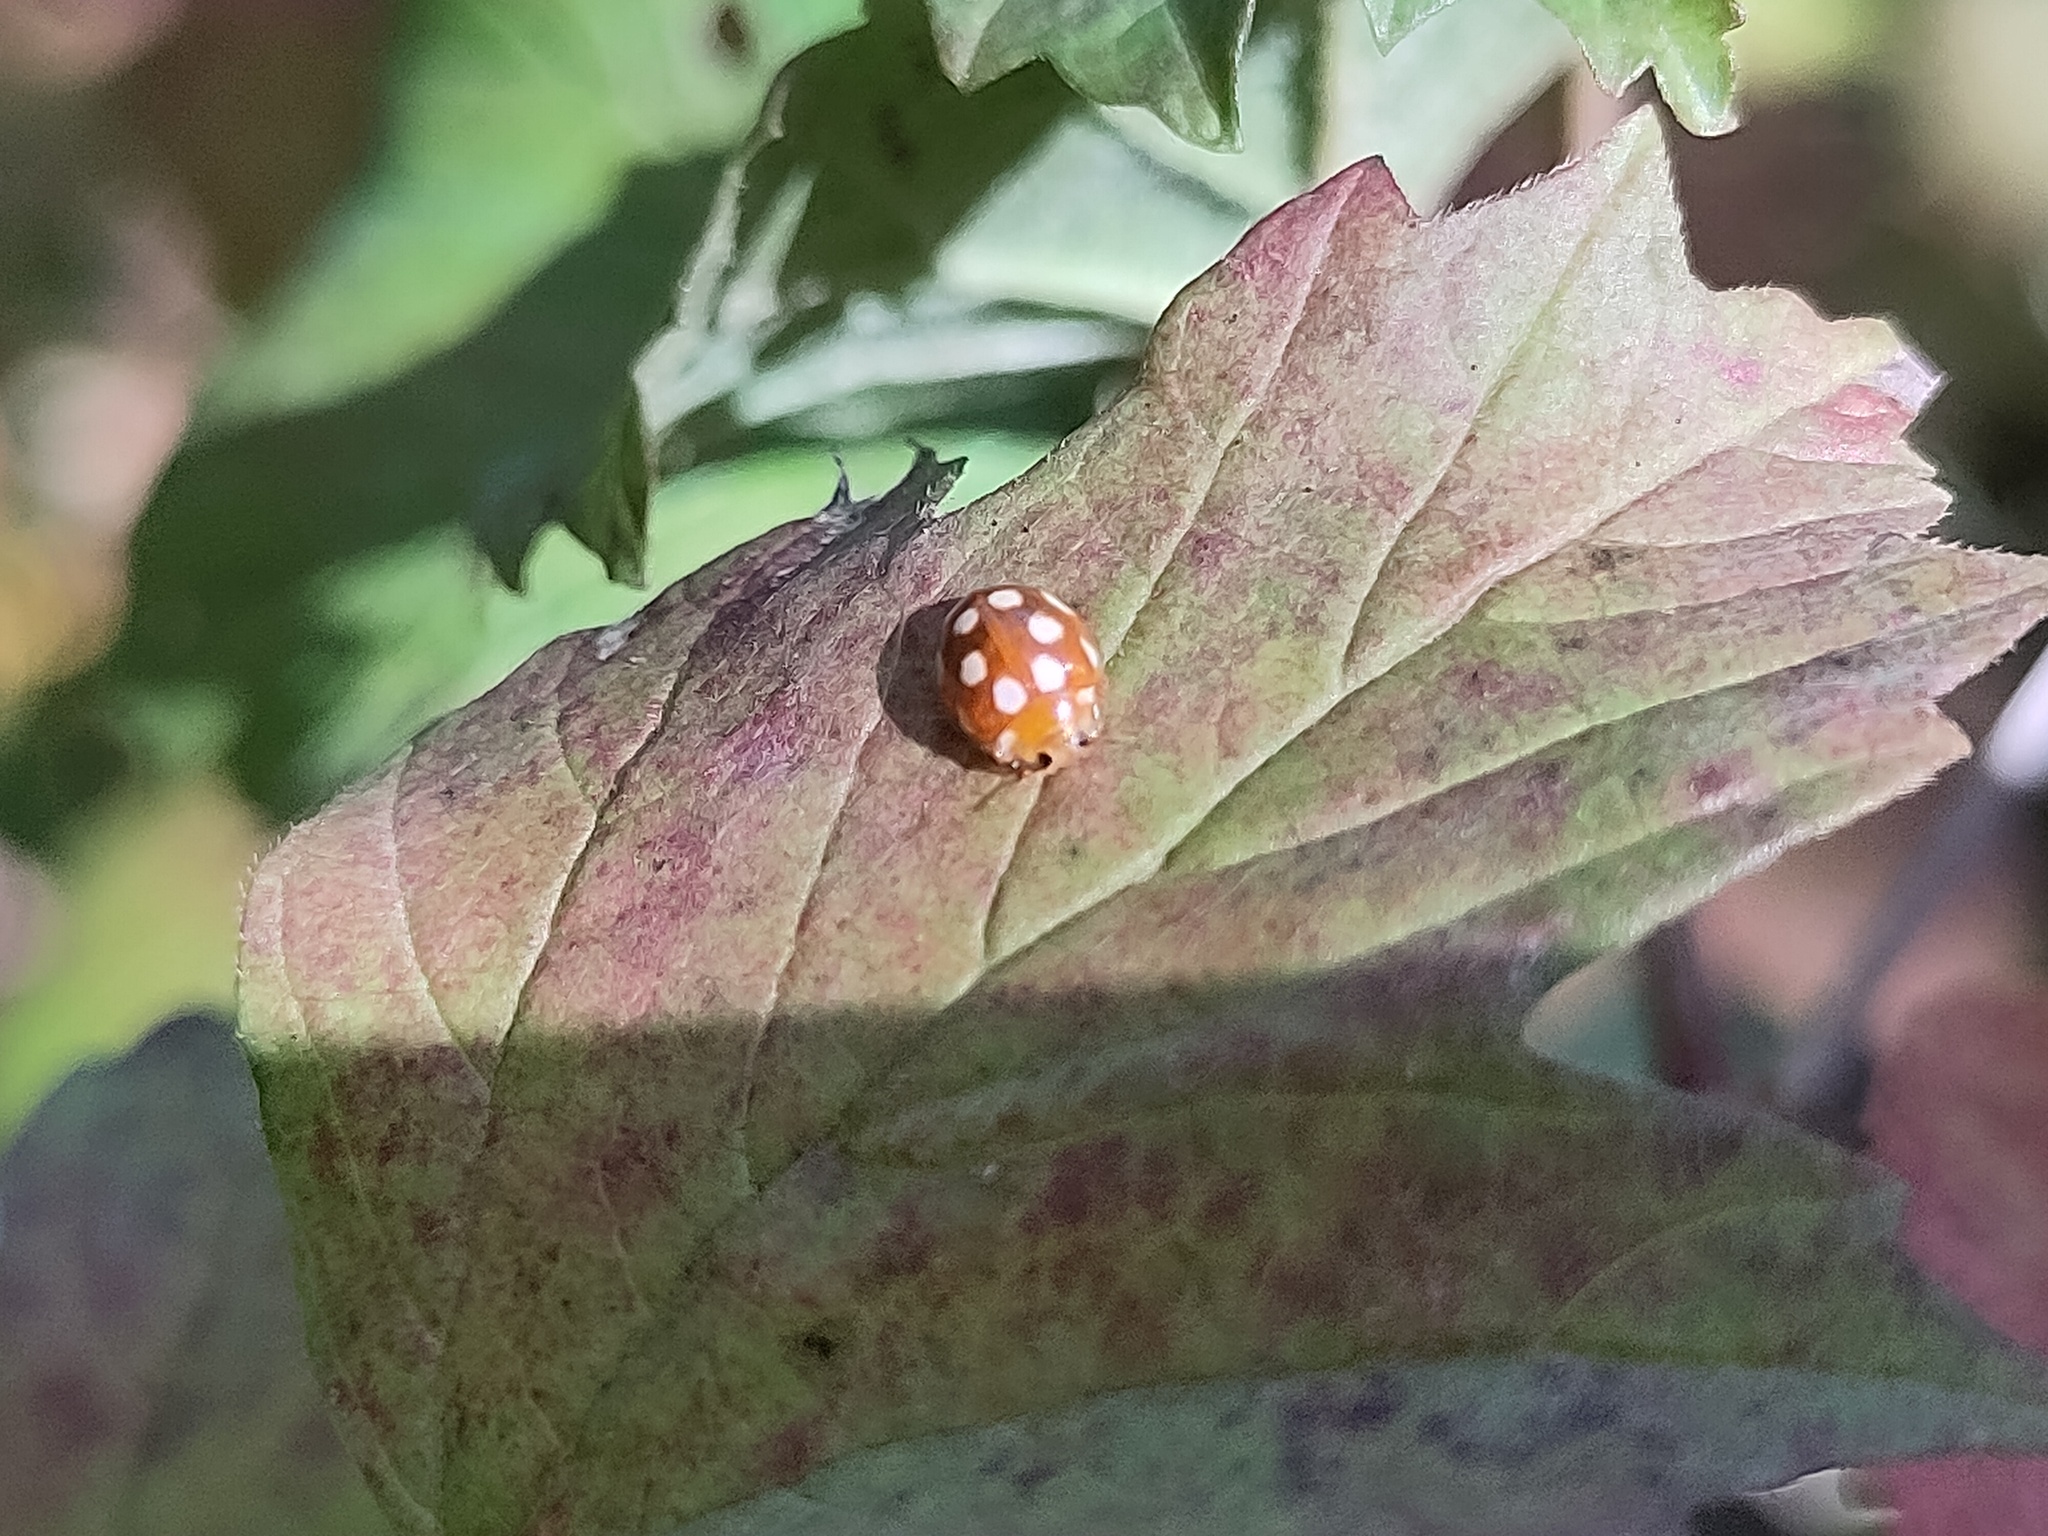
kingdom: Animalia
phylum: Arthropoda
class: Insecta
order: Coleoptera
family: Coccinellidae
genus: Vibidia
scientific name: Vibidia duodecimguttata
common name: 12-spot ladybird
